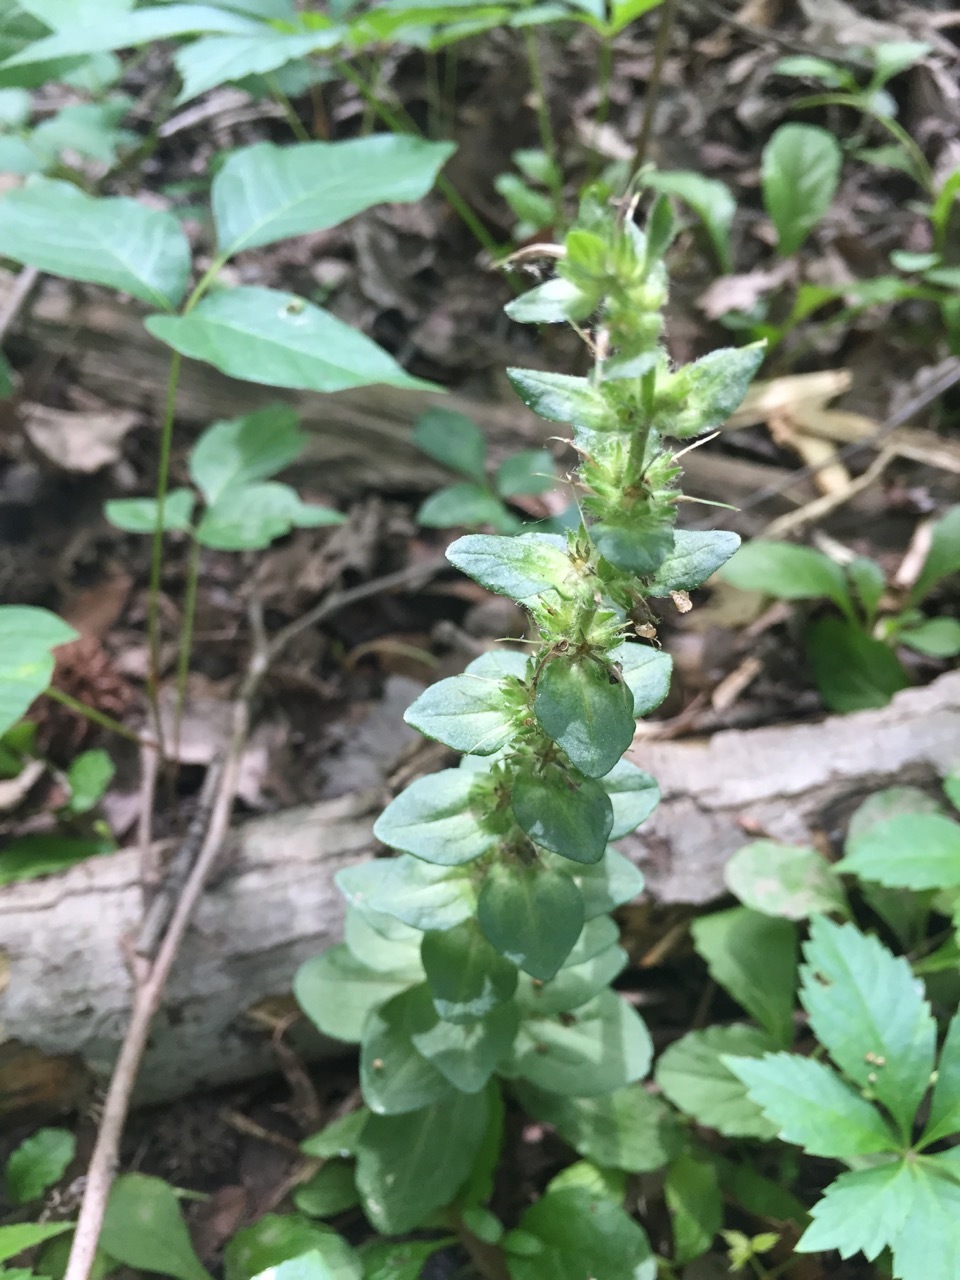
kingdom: Plantae
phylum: Tracheophyta
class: Magnoliopsida
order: Lamiales
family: Lamiaceae
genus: Ajuga
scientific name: Ajuga reptans
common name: Bugle
